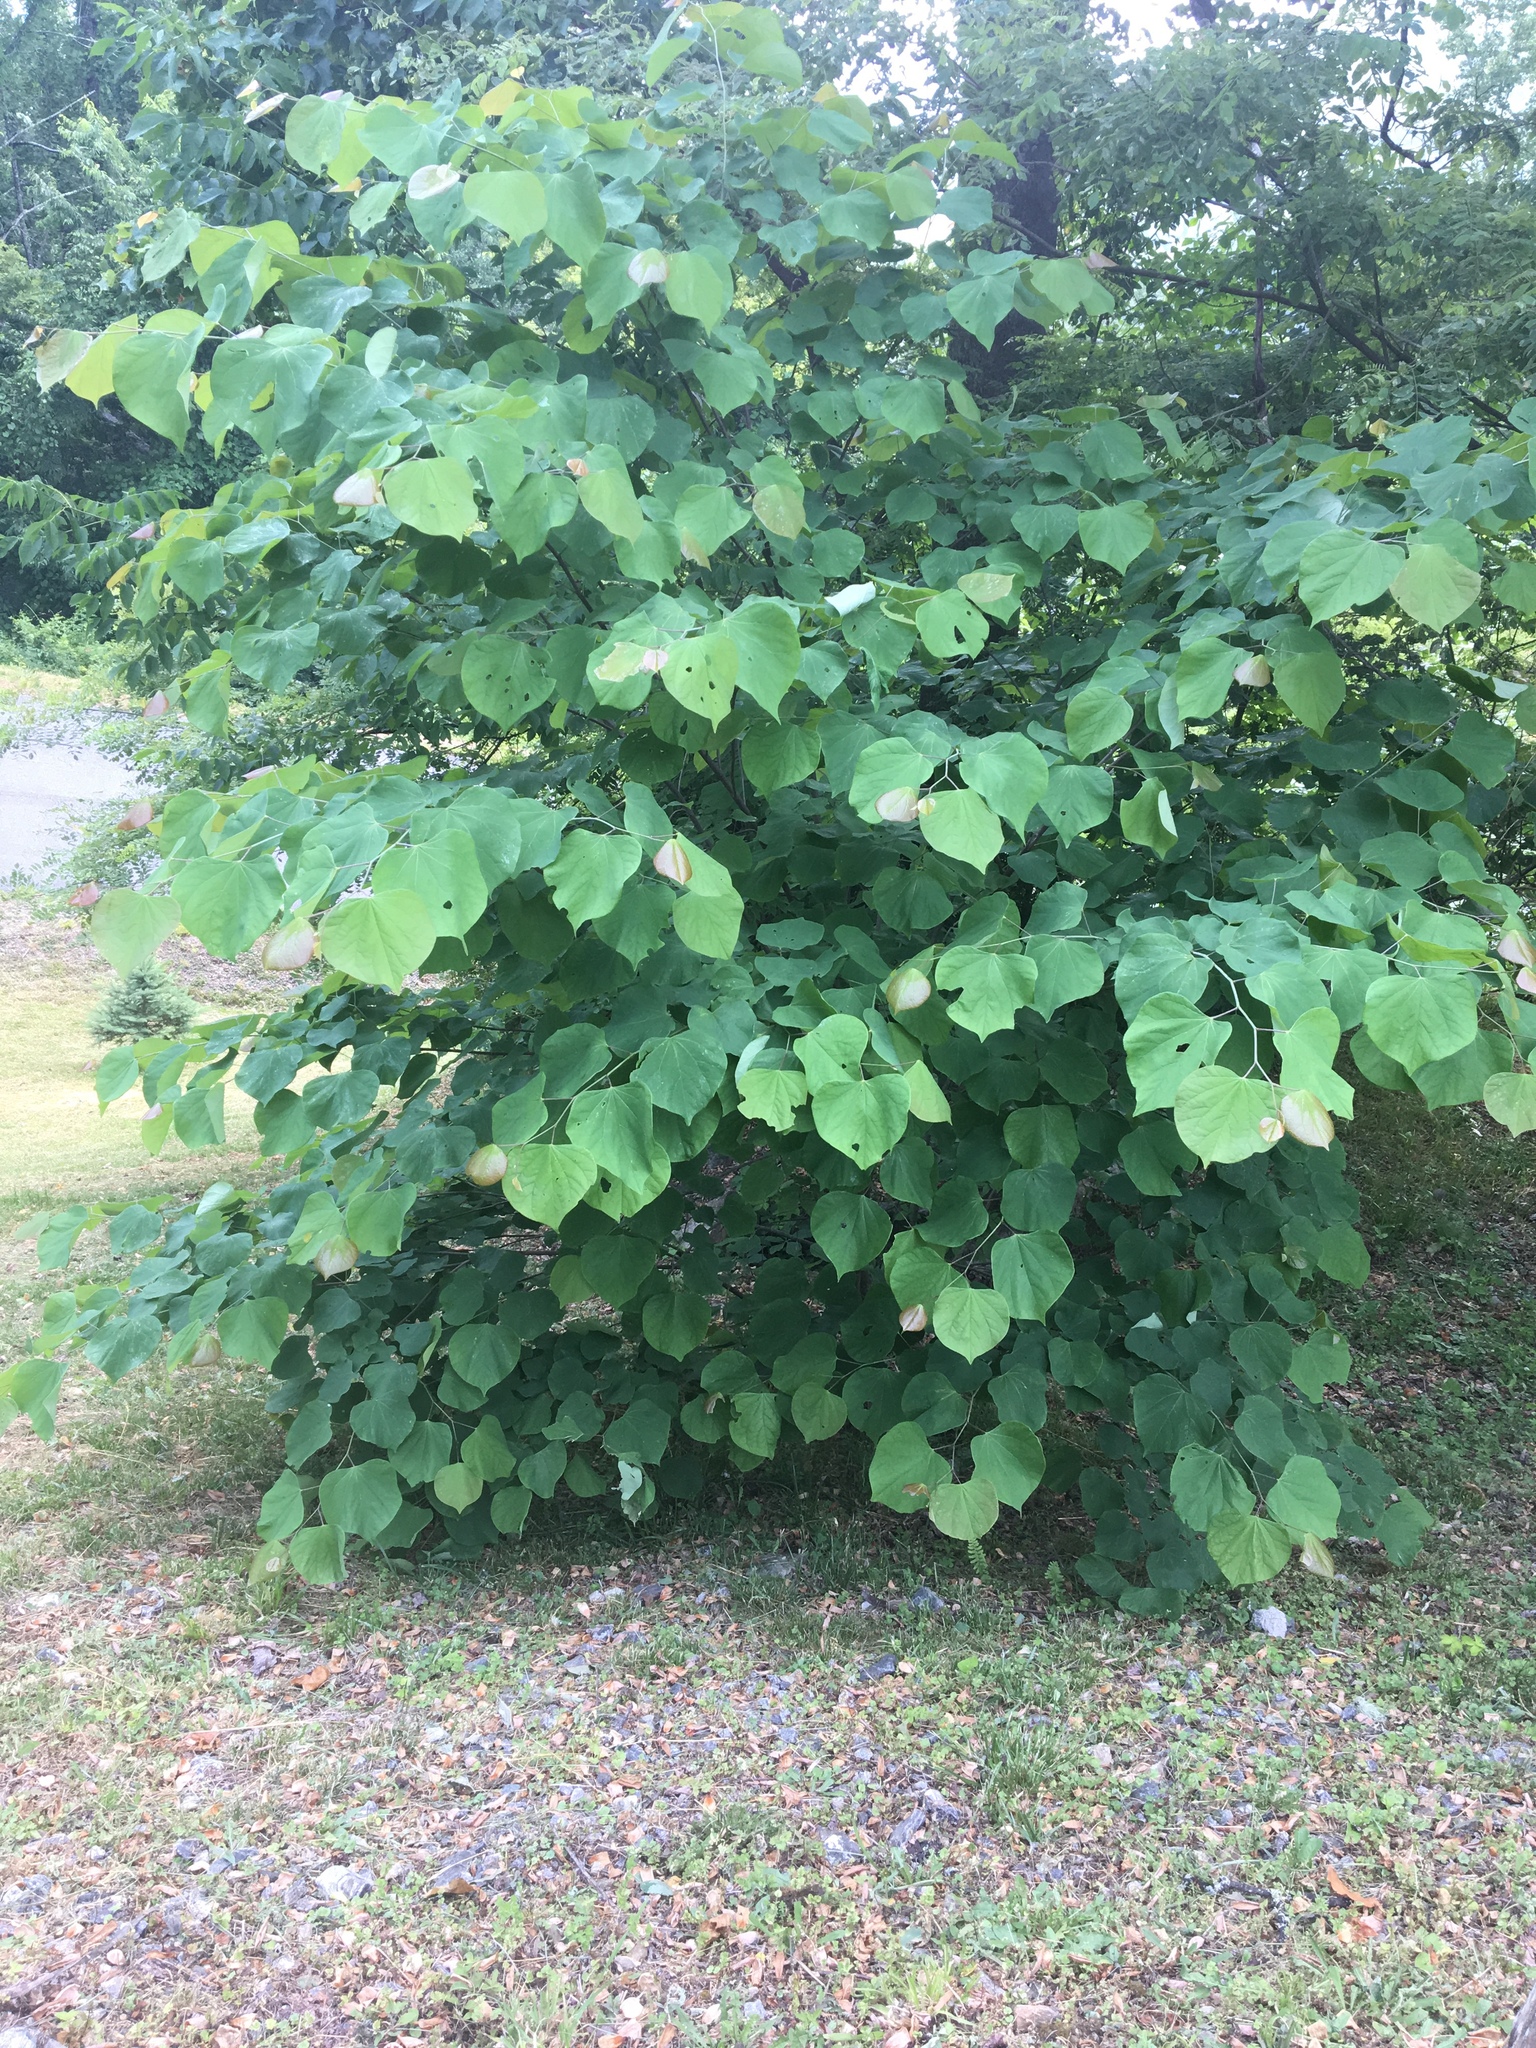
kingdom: Plantae
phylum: Tracheophyta
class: Magnoliopsida
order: Fabales
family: Fabaceae
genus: Cercis
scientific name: Cercis canadensis
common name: Eastern redbud
